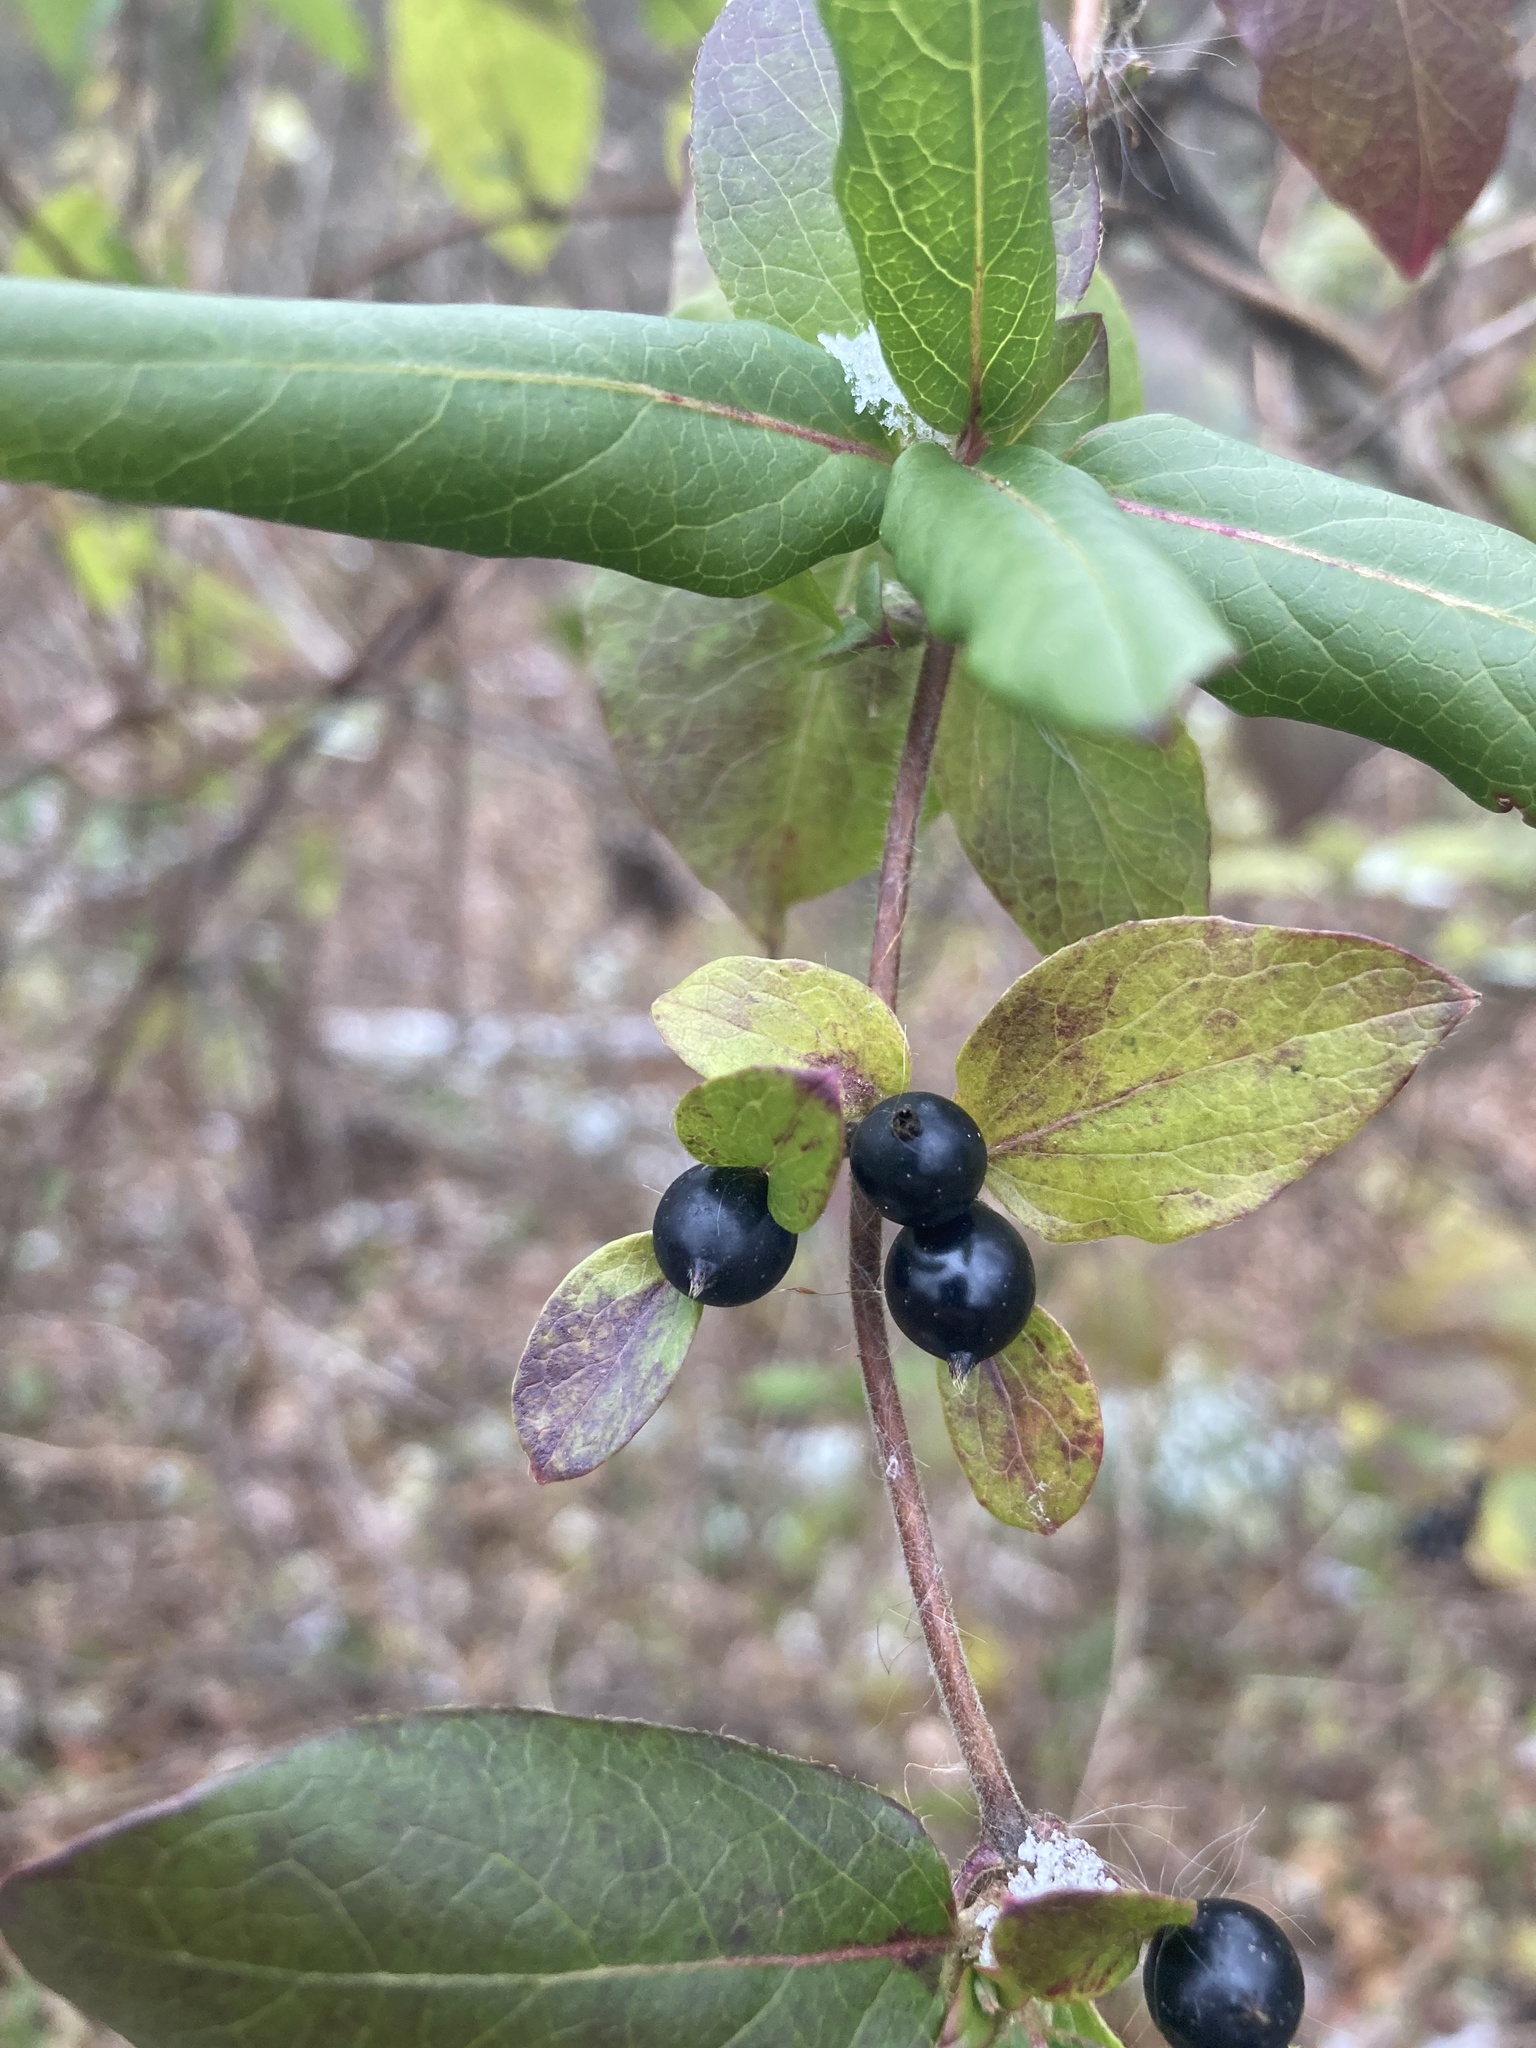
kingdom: Plantae
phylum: Tracheophyta
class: Magnoliopsida
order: Dipsacales
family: Caprifoliaceae
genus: Lonicera
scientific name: Lonicera japonica
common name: Japanese honeysuckle
